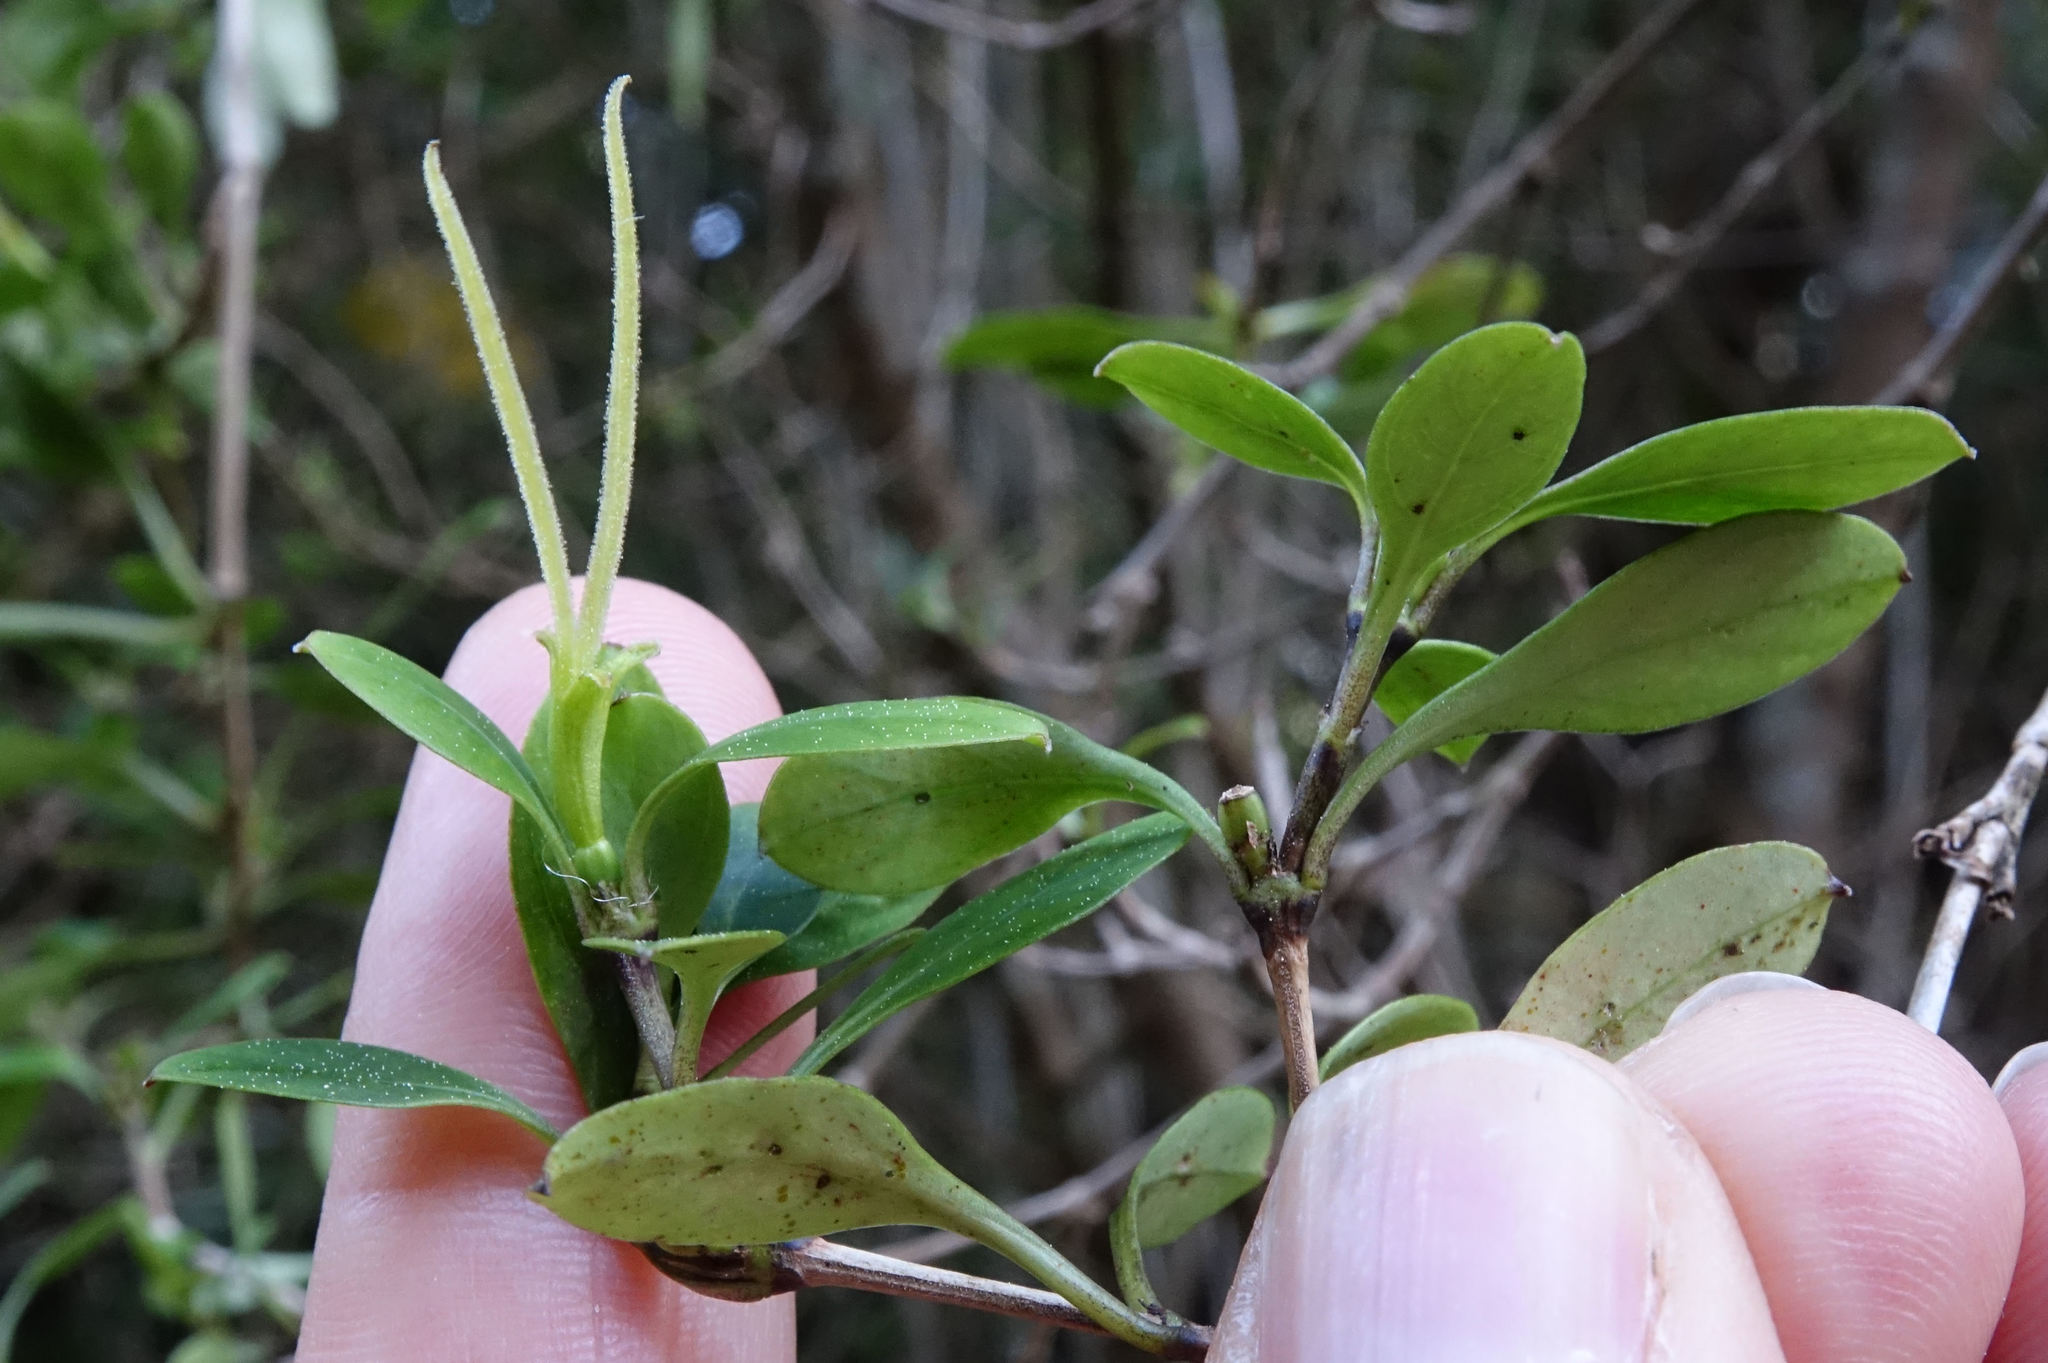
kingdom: Plantae
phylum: Tracheophyta
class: Magnoliopsida
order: Gentianales
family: Rubiaceae
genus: Coprosma
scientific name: Coprosma foetidissima
